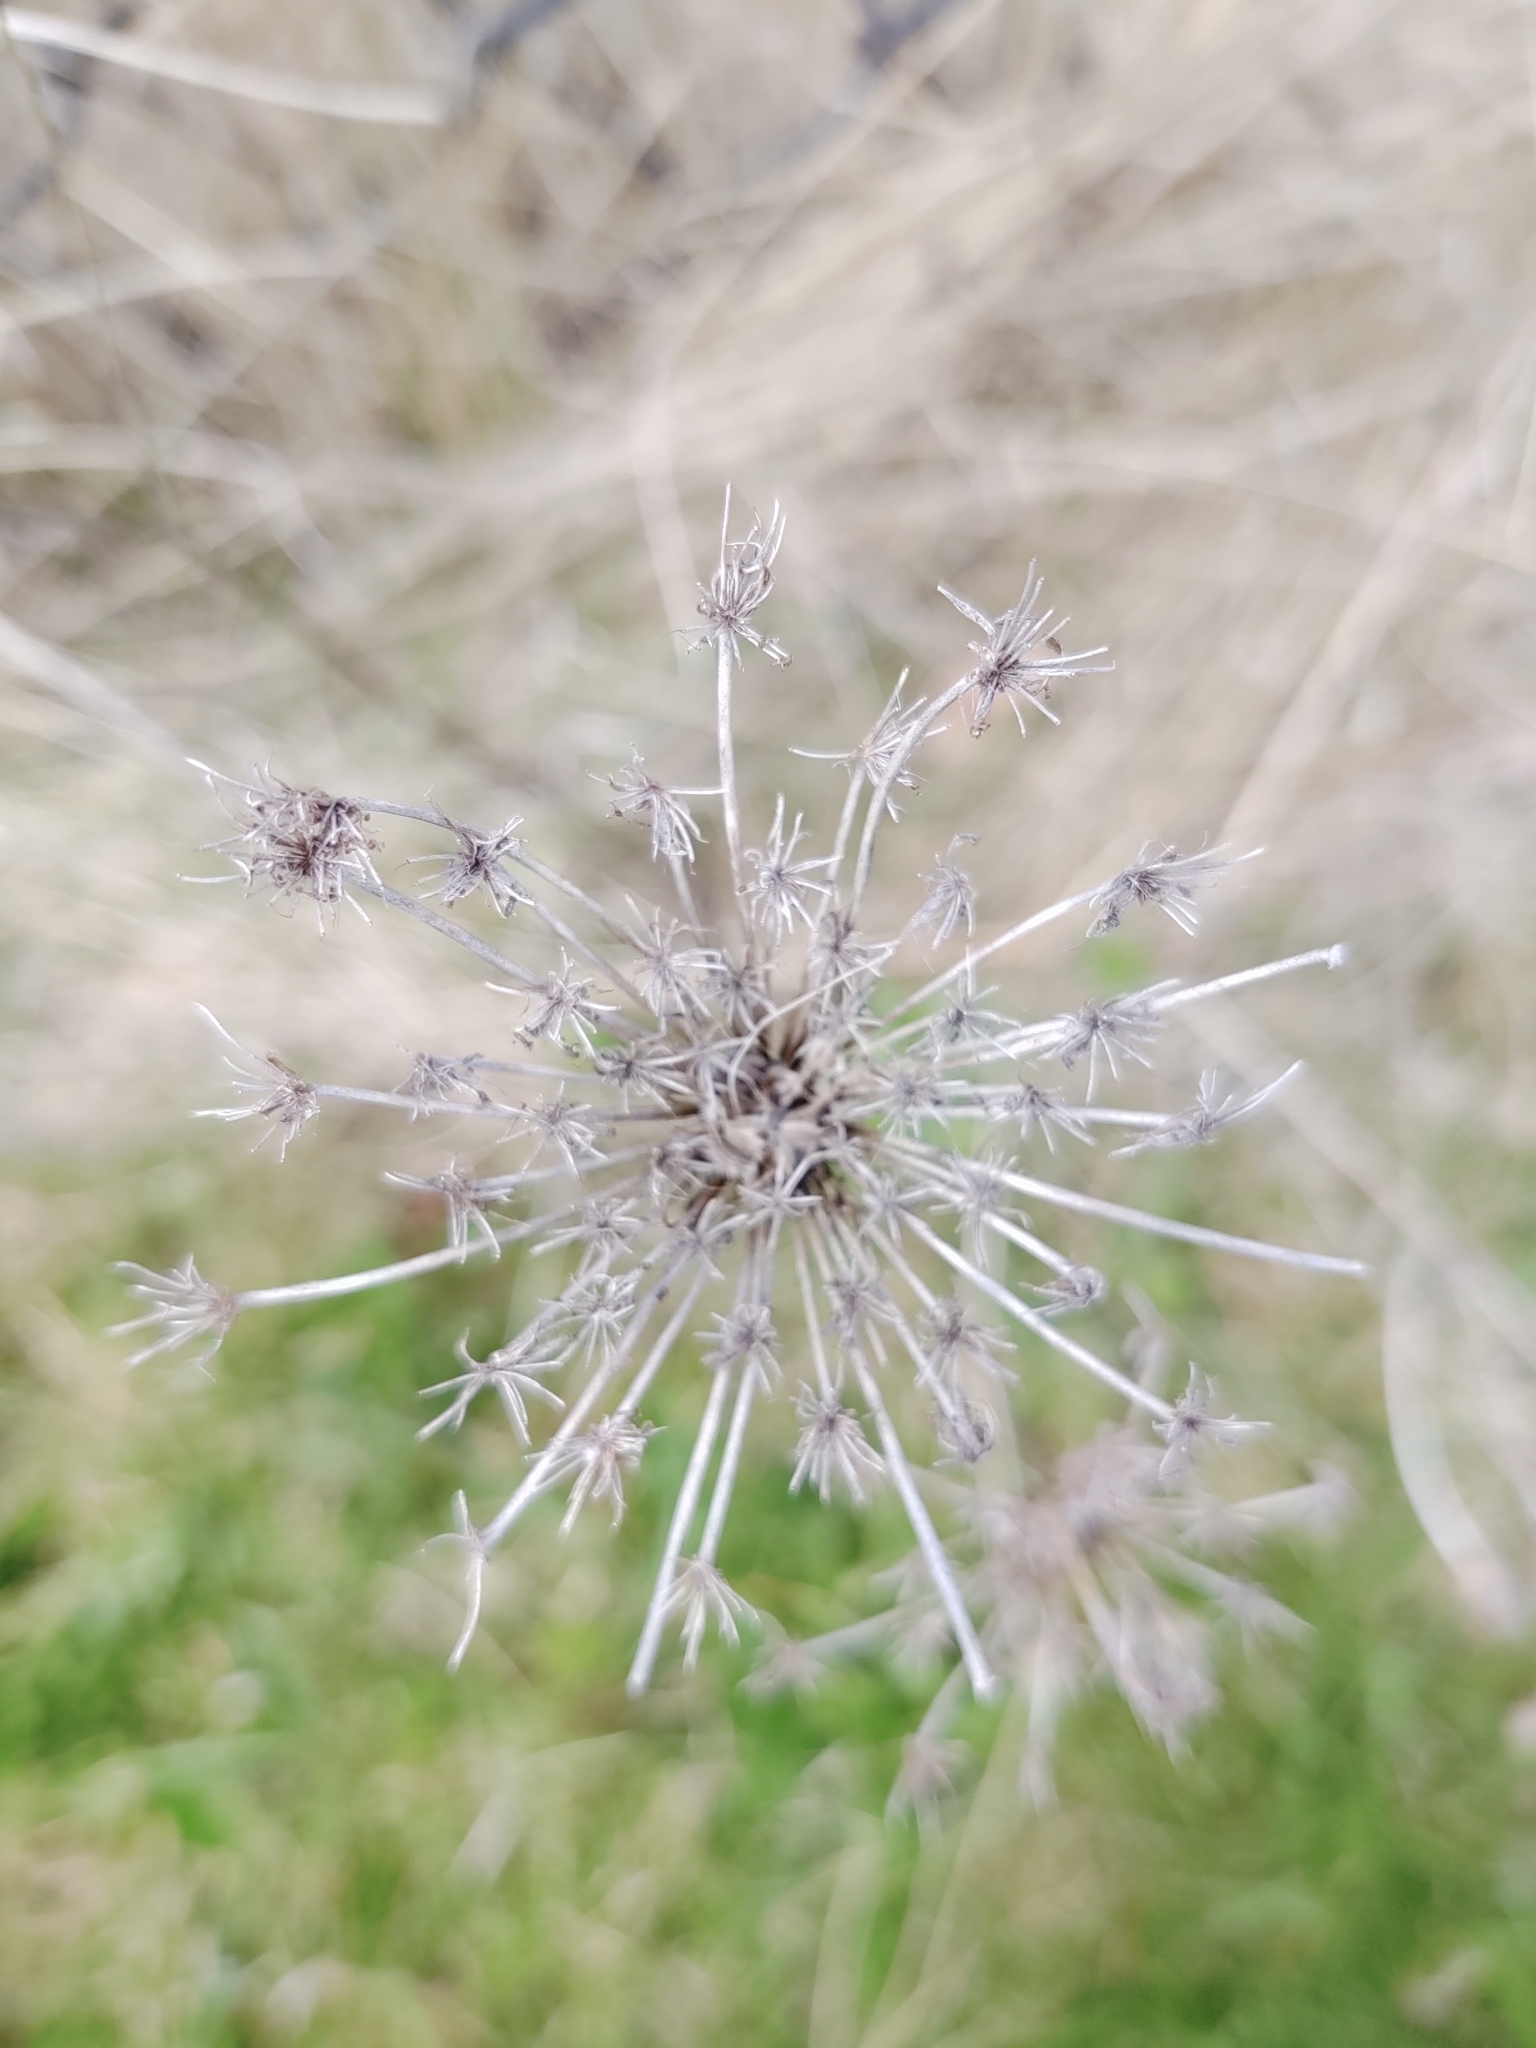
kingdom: Plantae
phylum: Tracheophyta
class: Magnoliopsida
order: Apiales
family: Apiaceae
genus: Daucus
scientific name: Daucus carota
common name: Wild carrot
